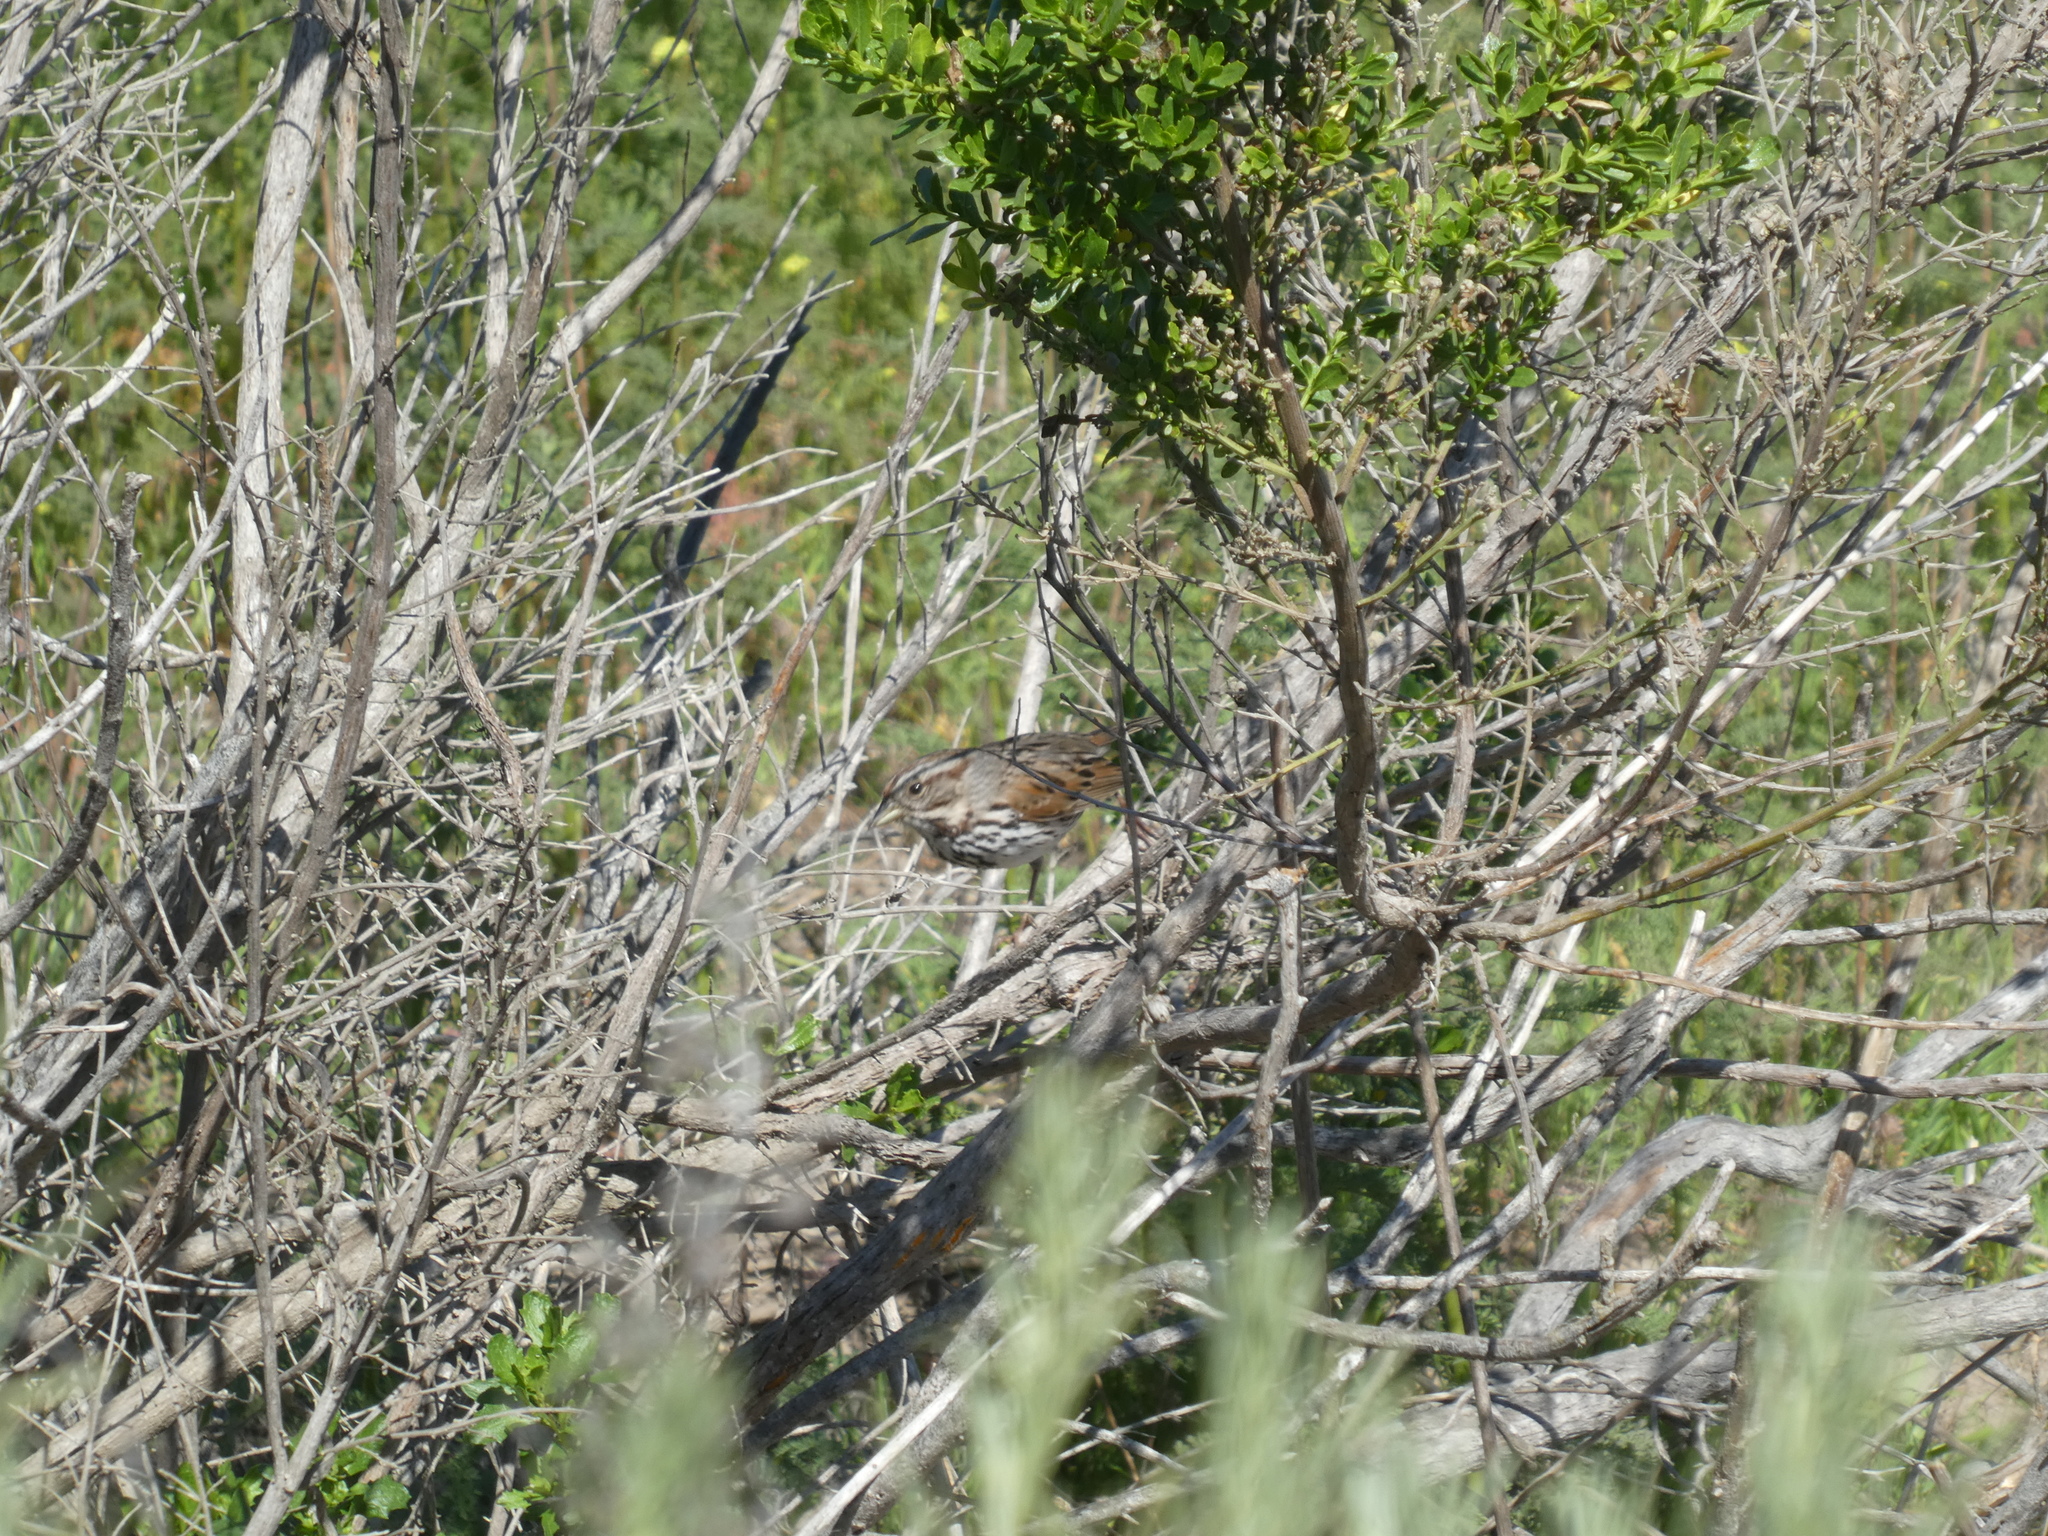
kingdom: Animalia
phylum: Chordata
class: Aves
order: Passeriformes
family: Passerellidae
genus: Melospiza
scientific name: Melospiza melodia
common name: Song sparrow
